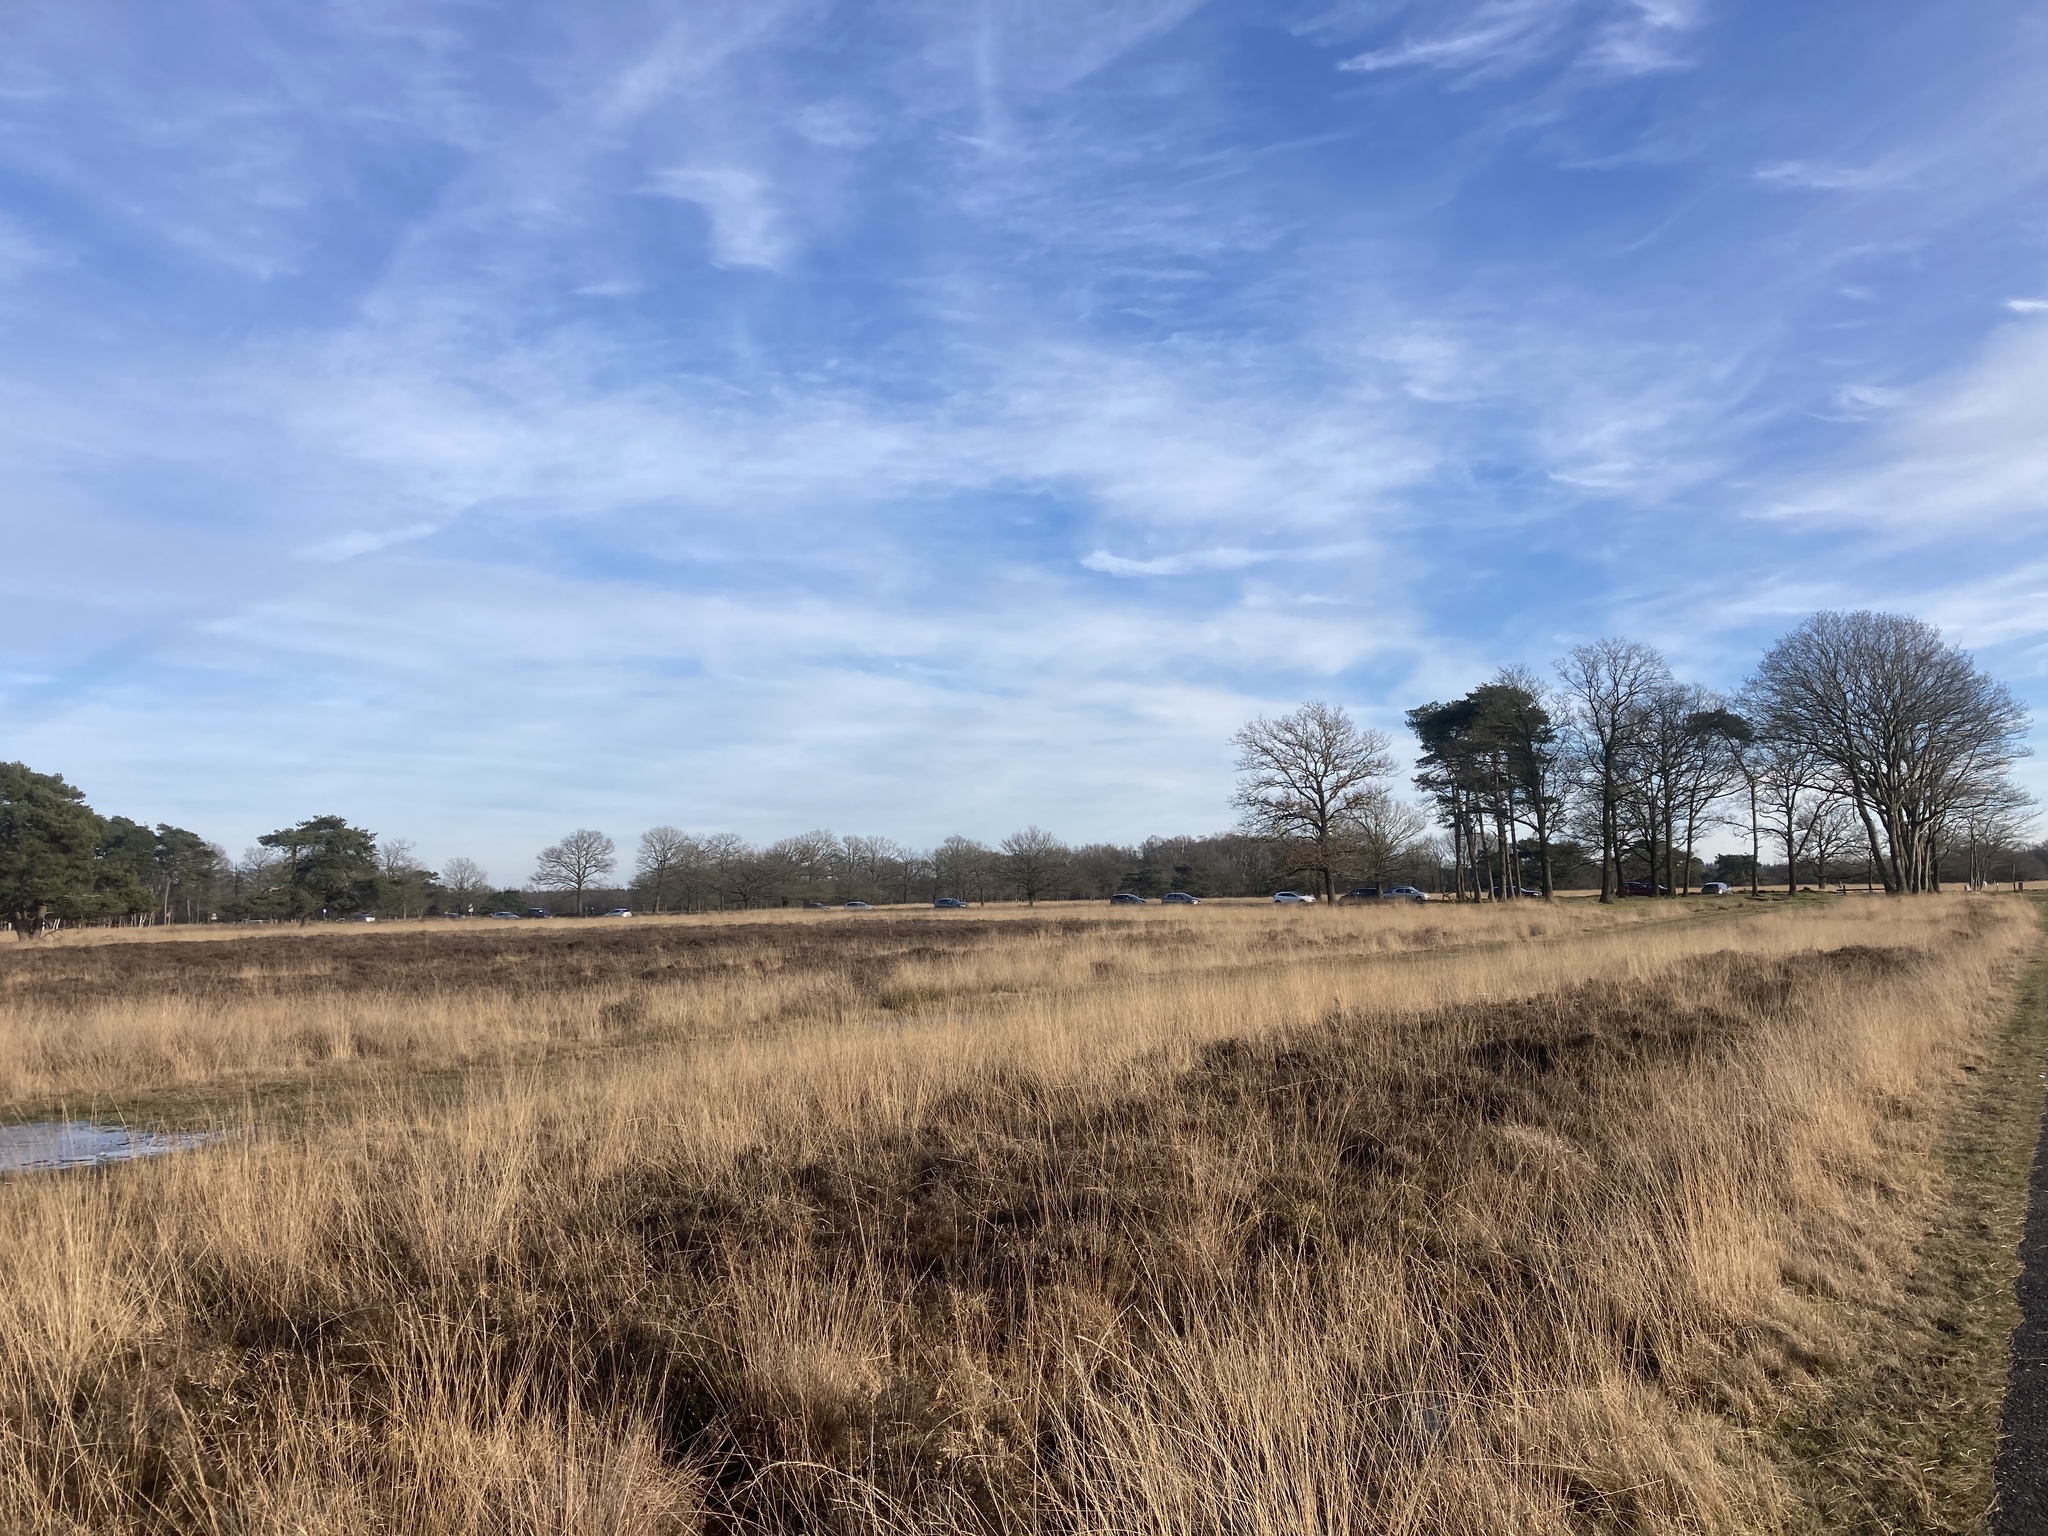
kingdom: Plantae
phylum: Tracheophyta
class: Liliopsida
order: Poales
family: Poaceae
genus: Molinia
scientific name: Molinia caerulea
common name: Purple moor-grass
